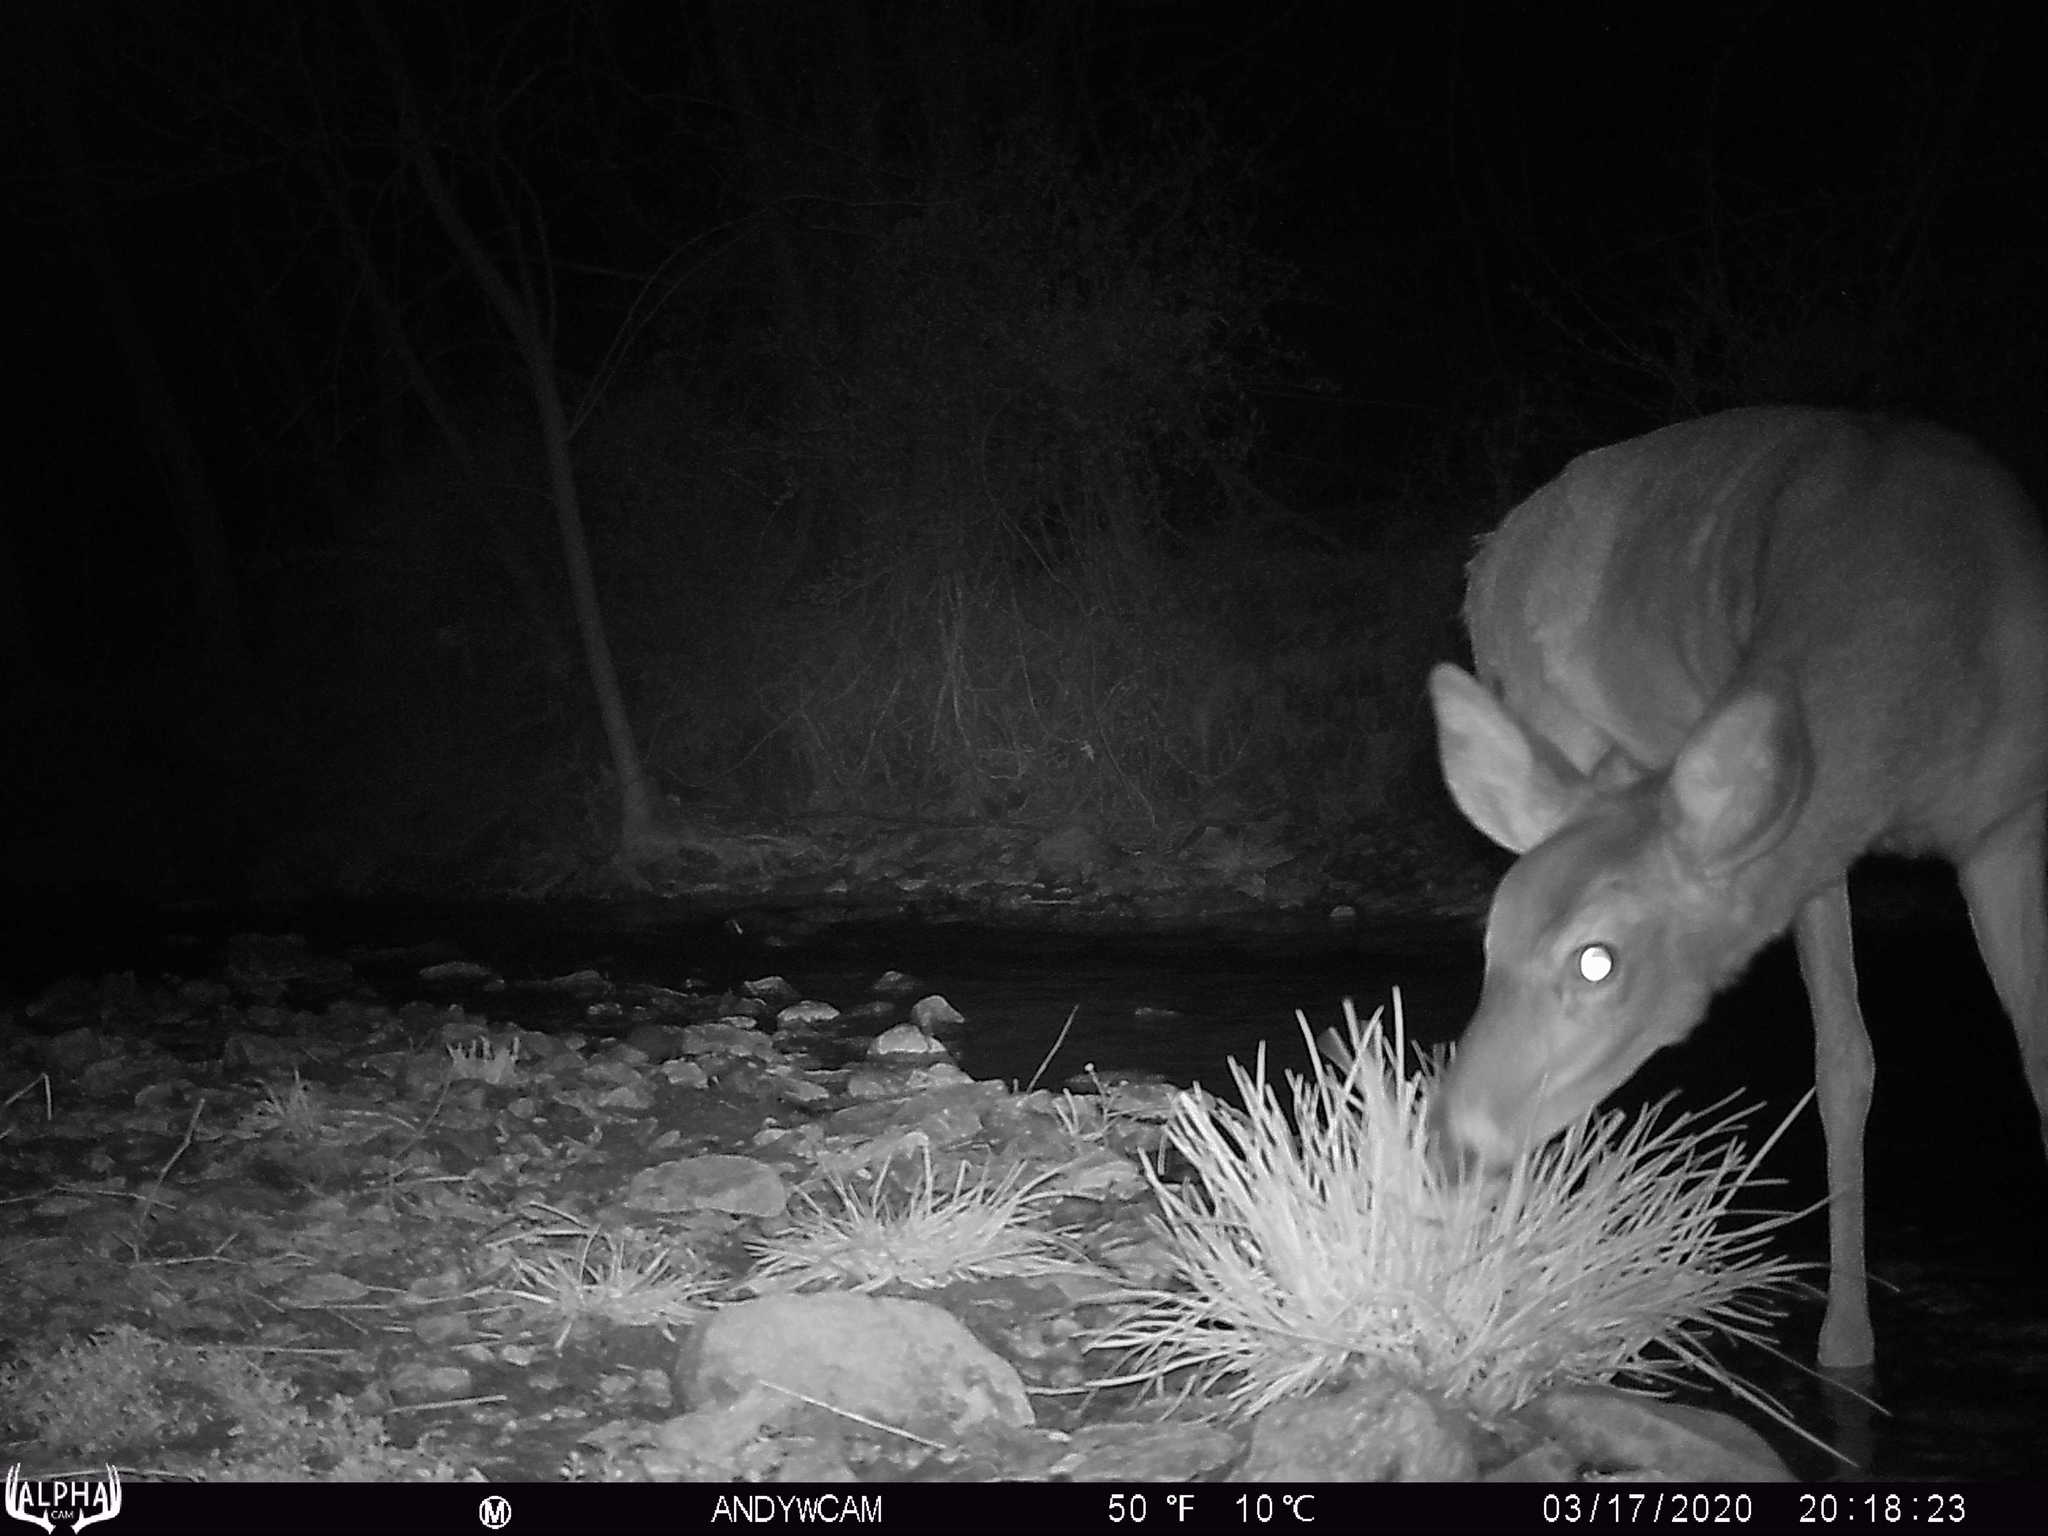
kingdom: Animalia
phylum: Chordata
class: Mammalia
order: Artiodactyla
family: Cervidae
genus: Odocoileus
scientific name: Odocoileus virginianus
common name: White-tailed deer
